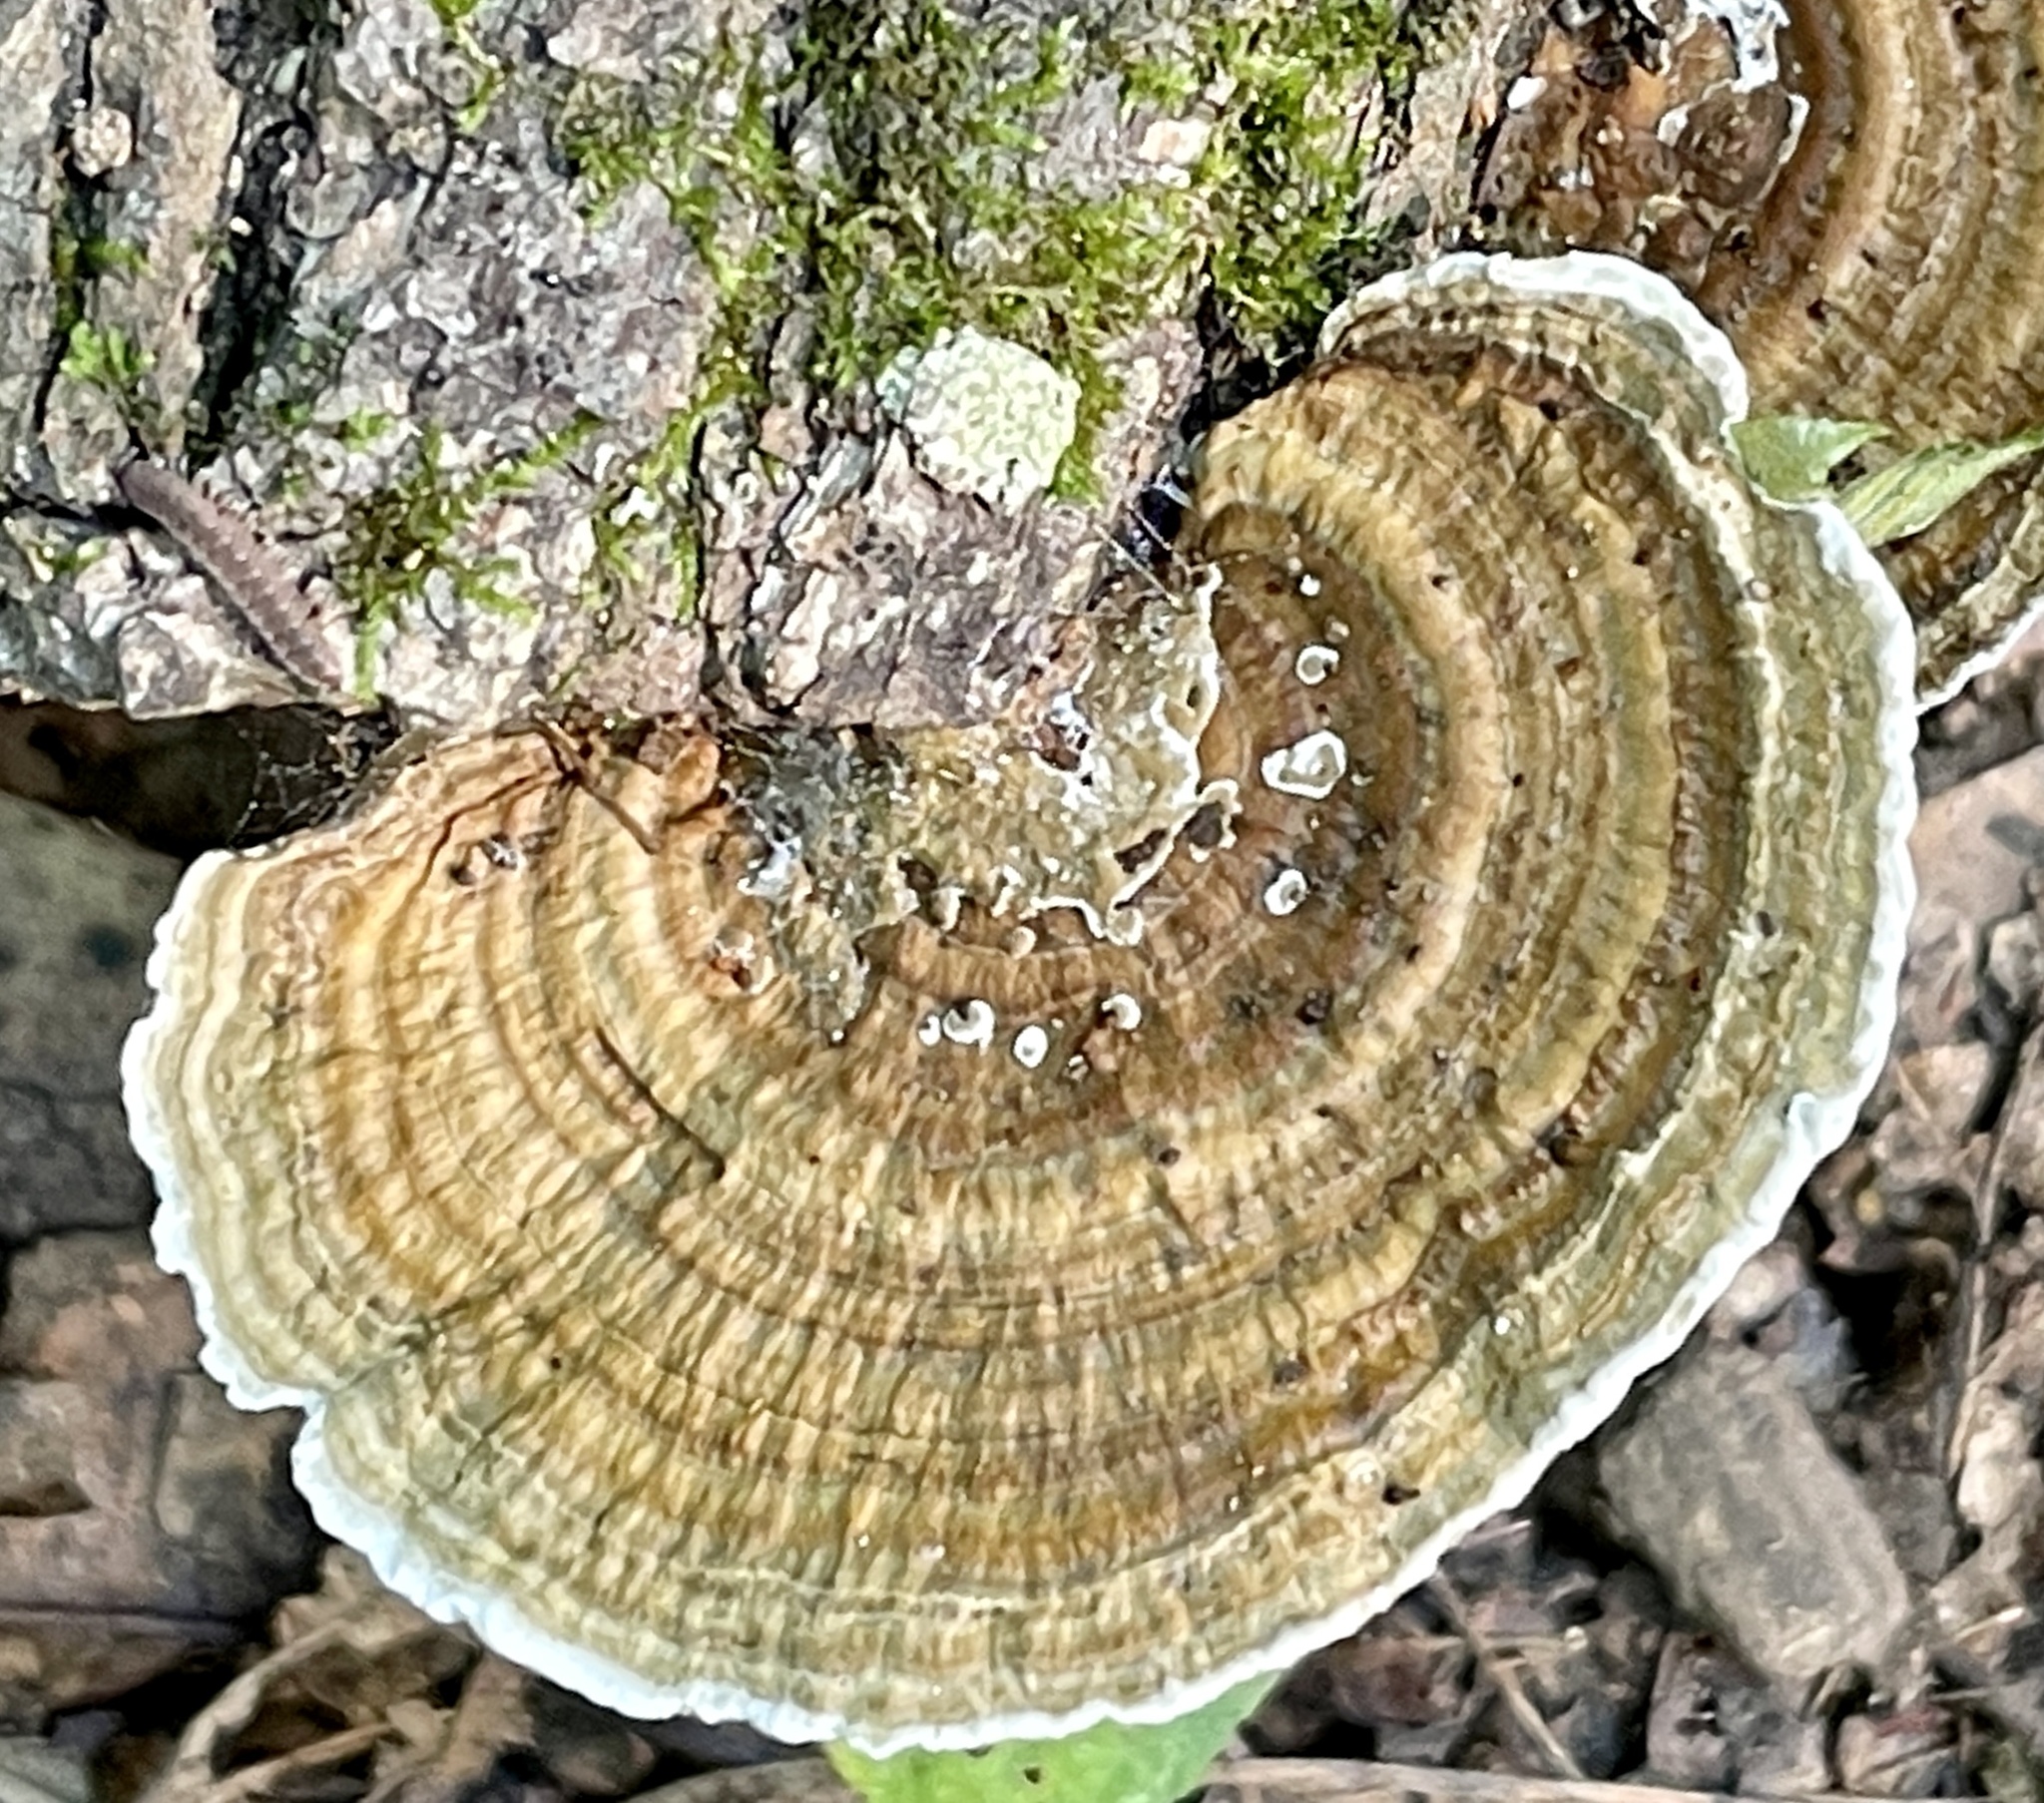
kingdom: Fungi
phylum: Basidiomycota
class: Agaricomycetes
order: Polyporales
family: Polyporaceae
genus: Daedaleopsis
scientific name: Daedaleopsis confragosa
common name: Blushing bracket
